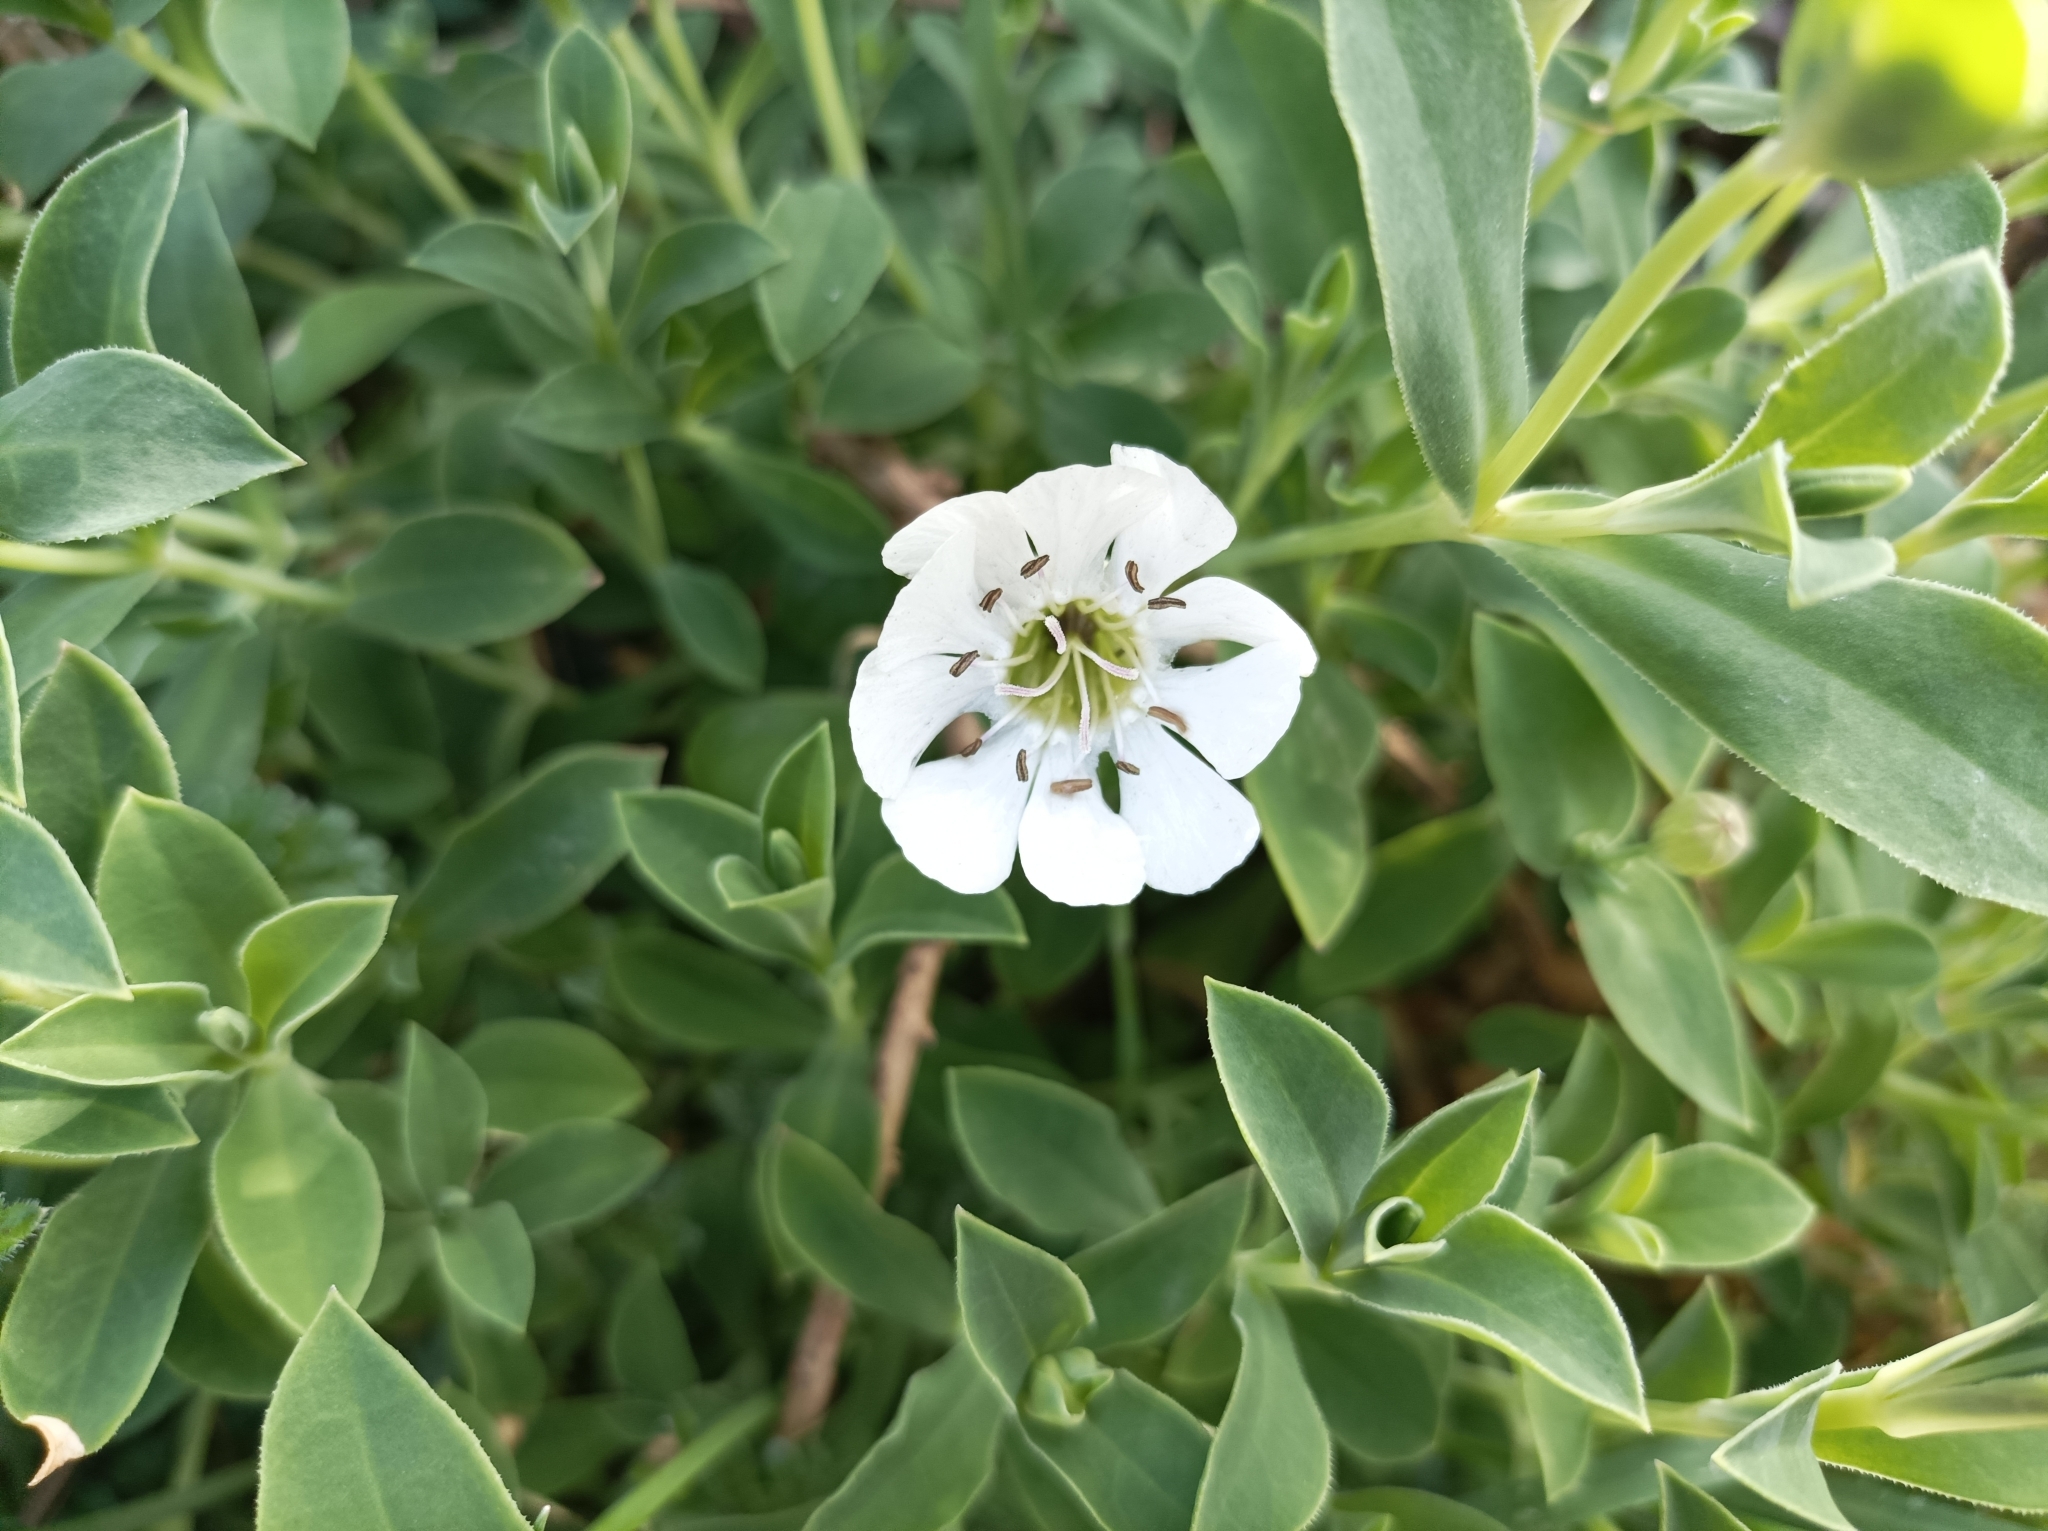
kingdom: Plantae
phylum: Tracheophyta
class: Magnoliopsida
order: Caryophyllales
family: Caryophyllaceae
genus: Silene
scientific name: Silene uniflora
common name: Sea campion
